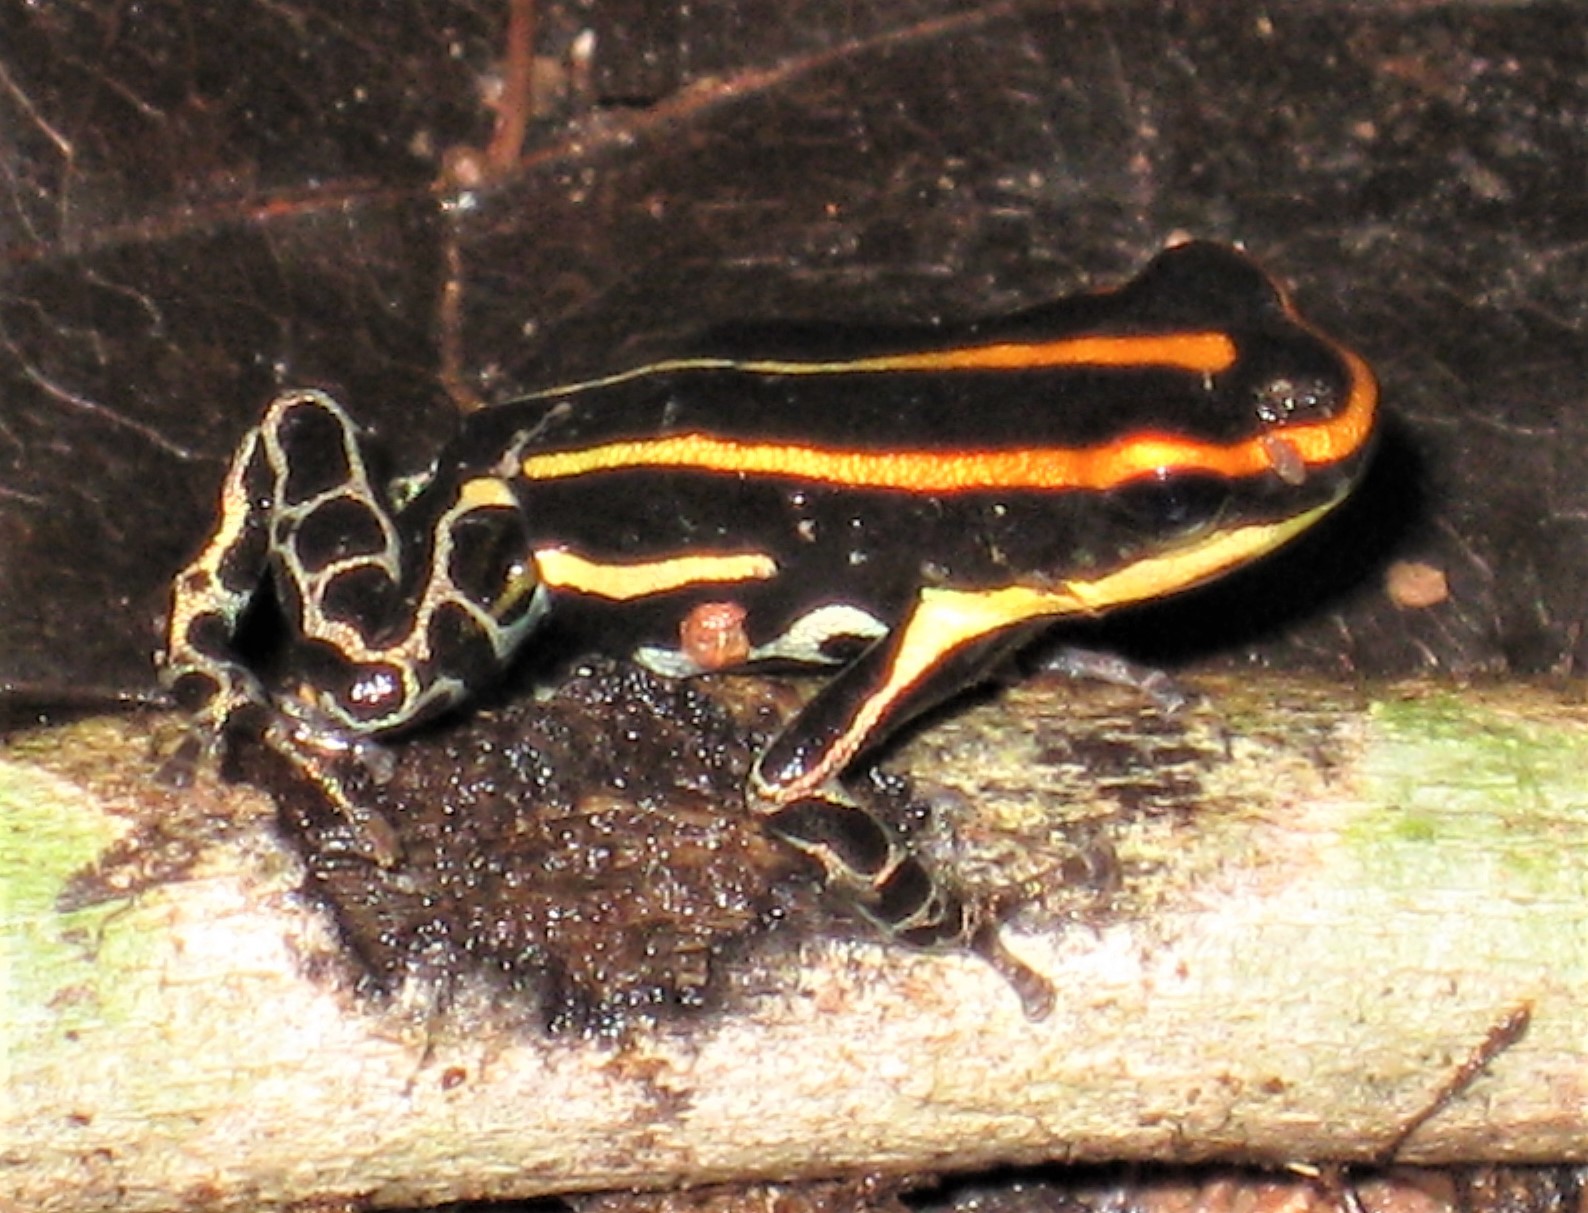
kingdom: Animalia
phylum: Chordata
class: Amphibia
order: Anura
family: Dendrobatidae
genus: Ranitomeya
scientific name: Ranitomeya uakarii
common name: Red uakari poison frog
